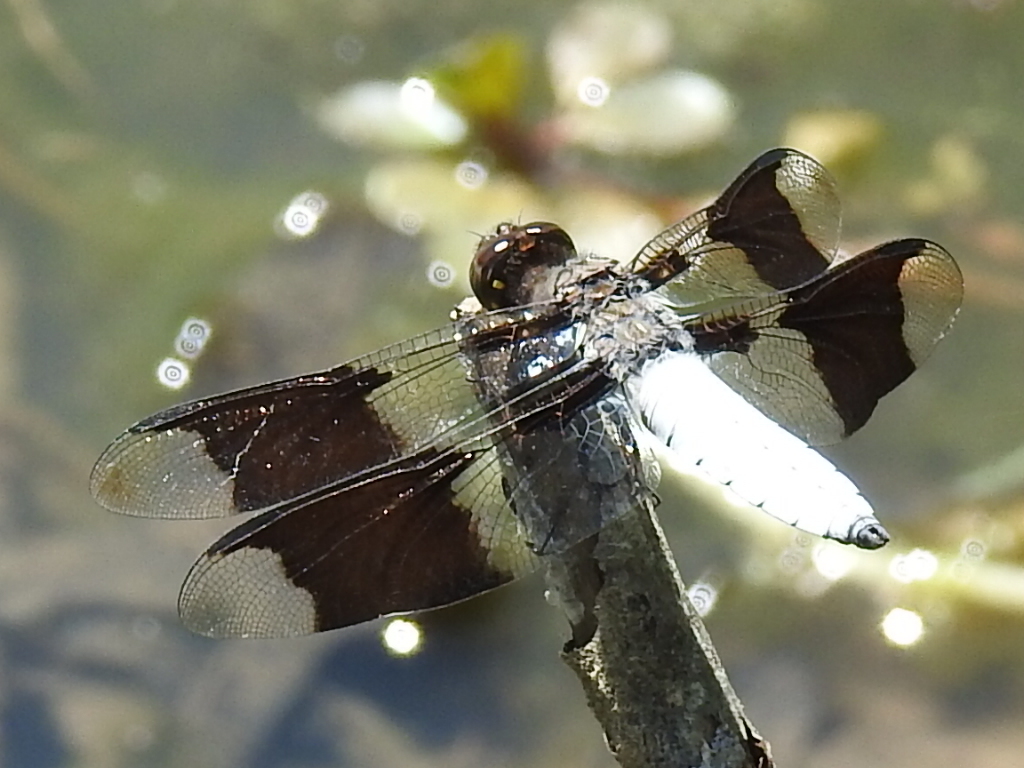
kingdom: Animalia
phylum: Arthropoda
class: Insecta
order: Odonata
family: Libellulidae
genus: Plathemis
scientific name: Plathemis lydia
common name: Common whitetail
